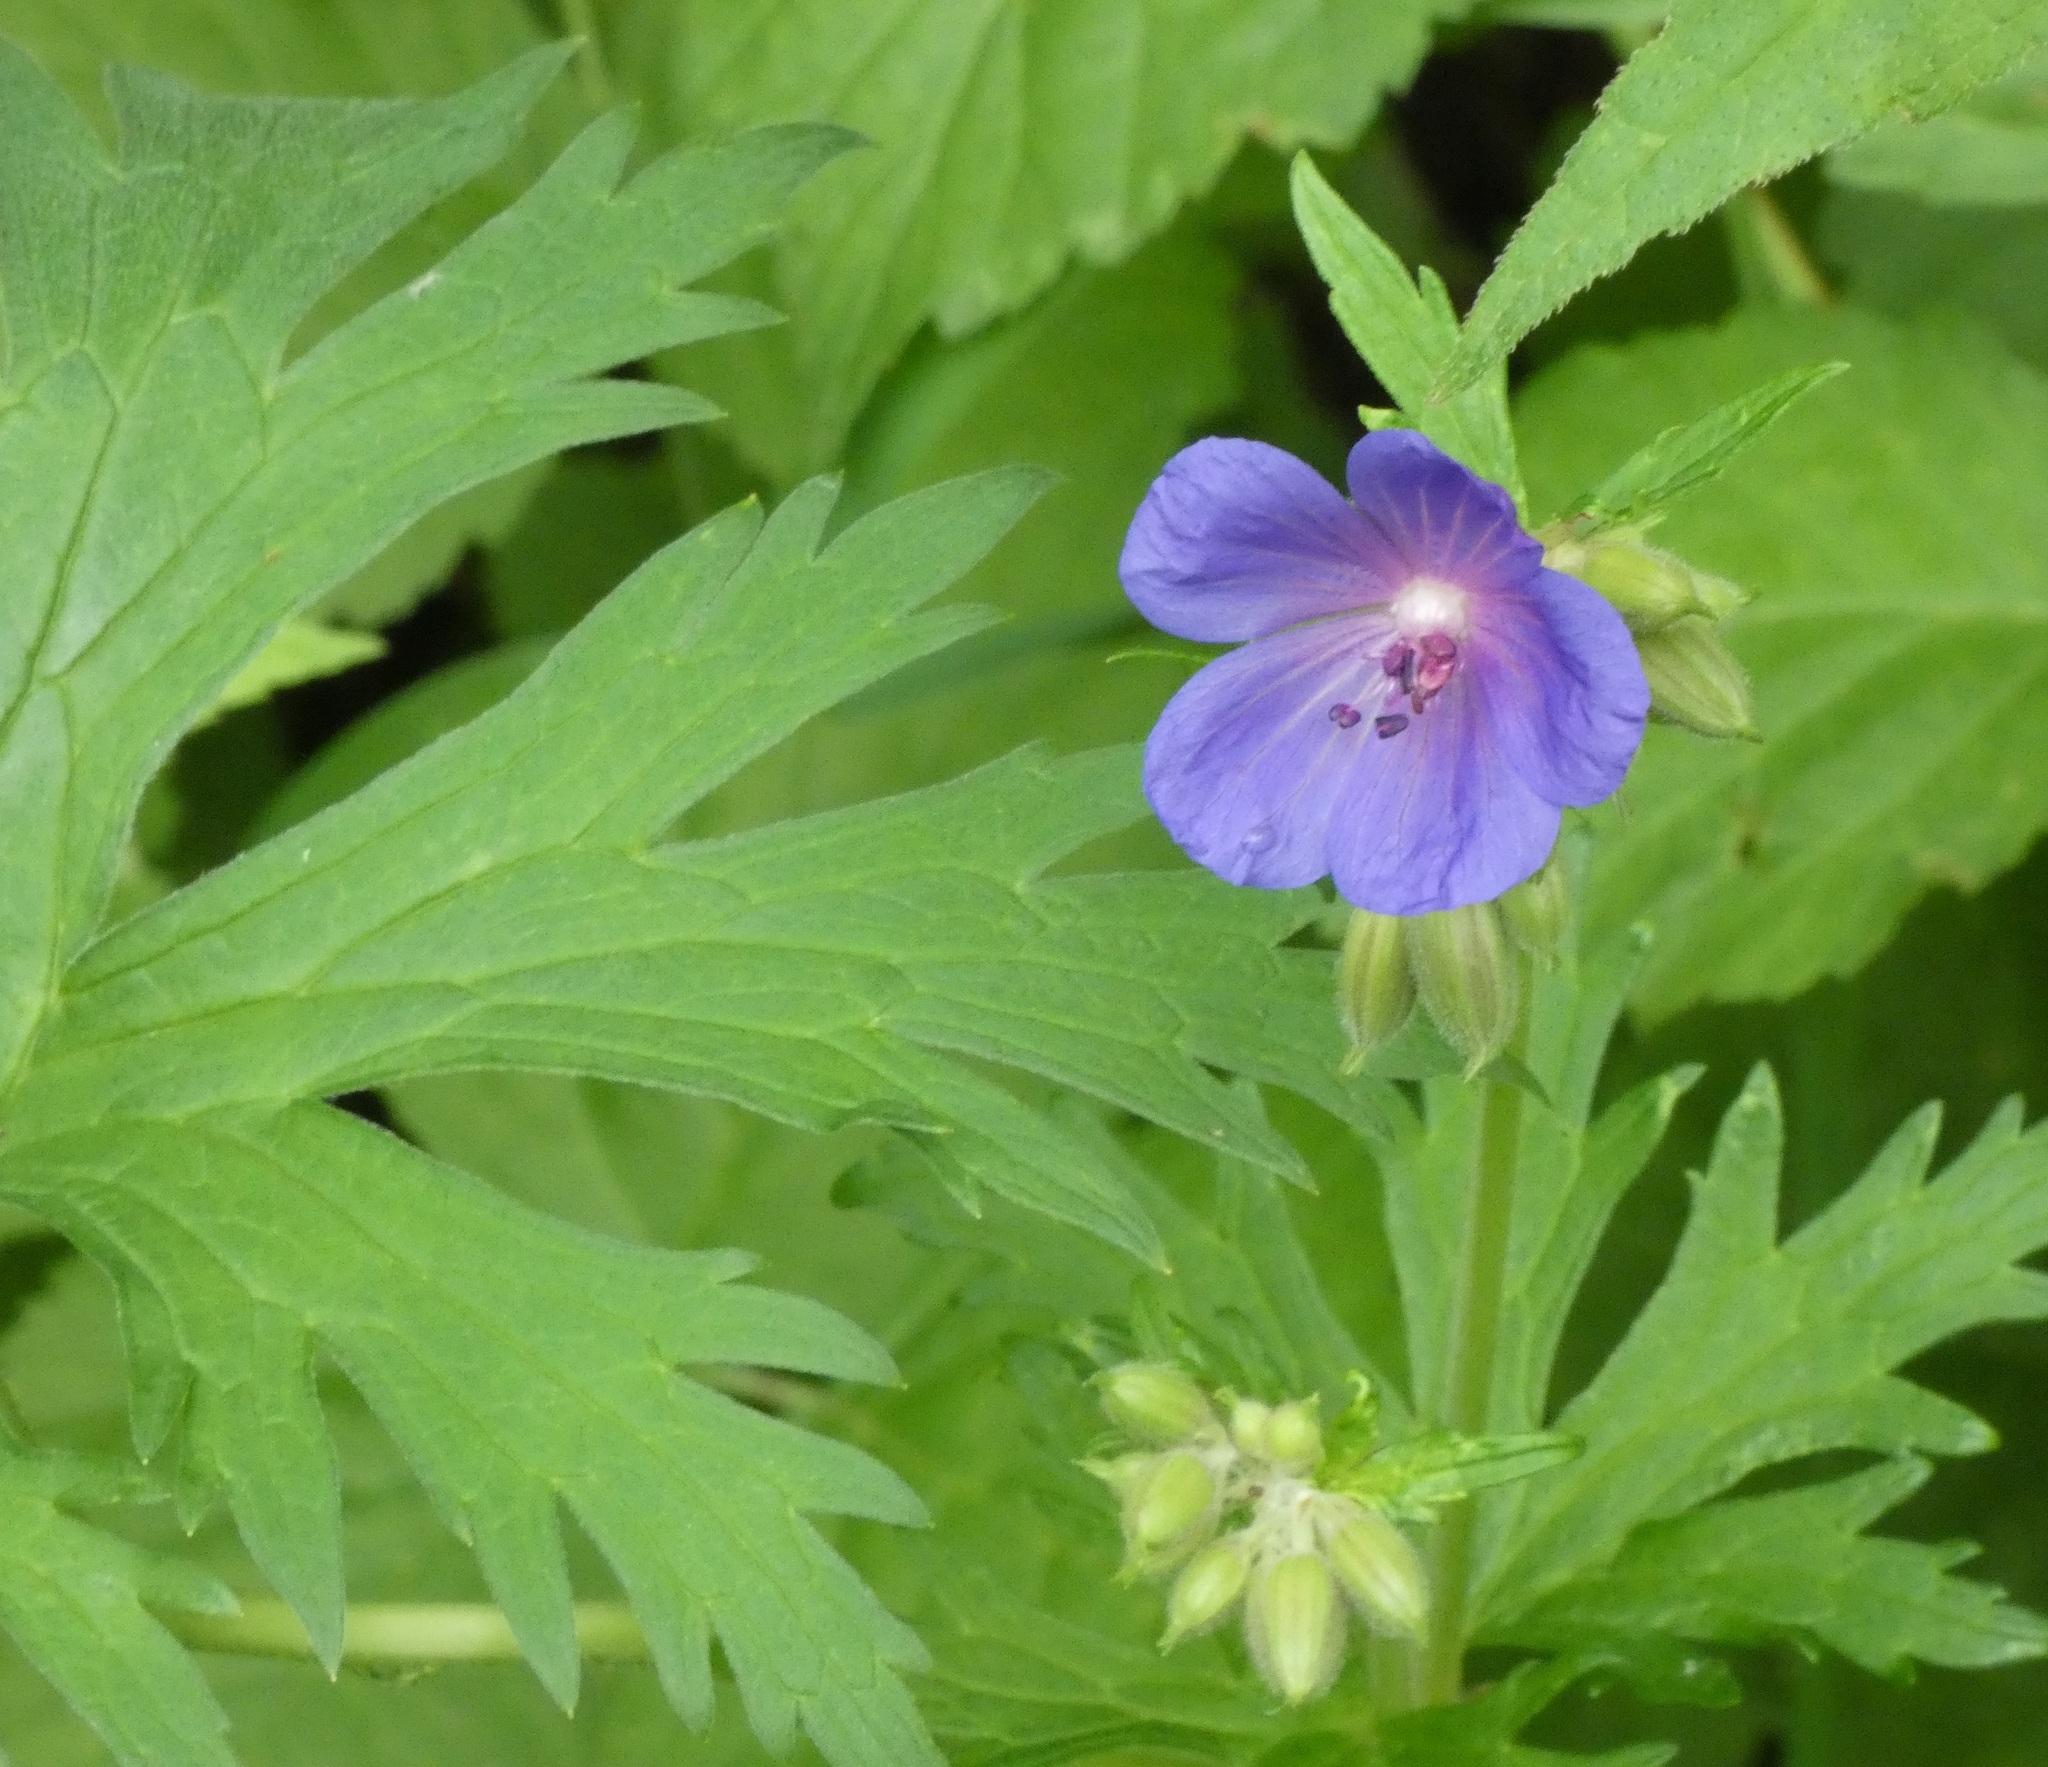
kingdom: Plantae
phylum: Tracheophyta
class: Magnoliopsida
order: Geraniales
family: Geraniaceae
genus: Geranium
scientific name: Geranium pratense
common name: Meadow crane's-bill
